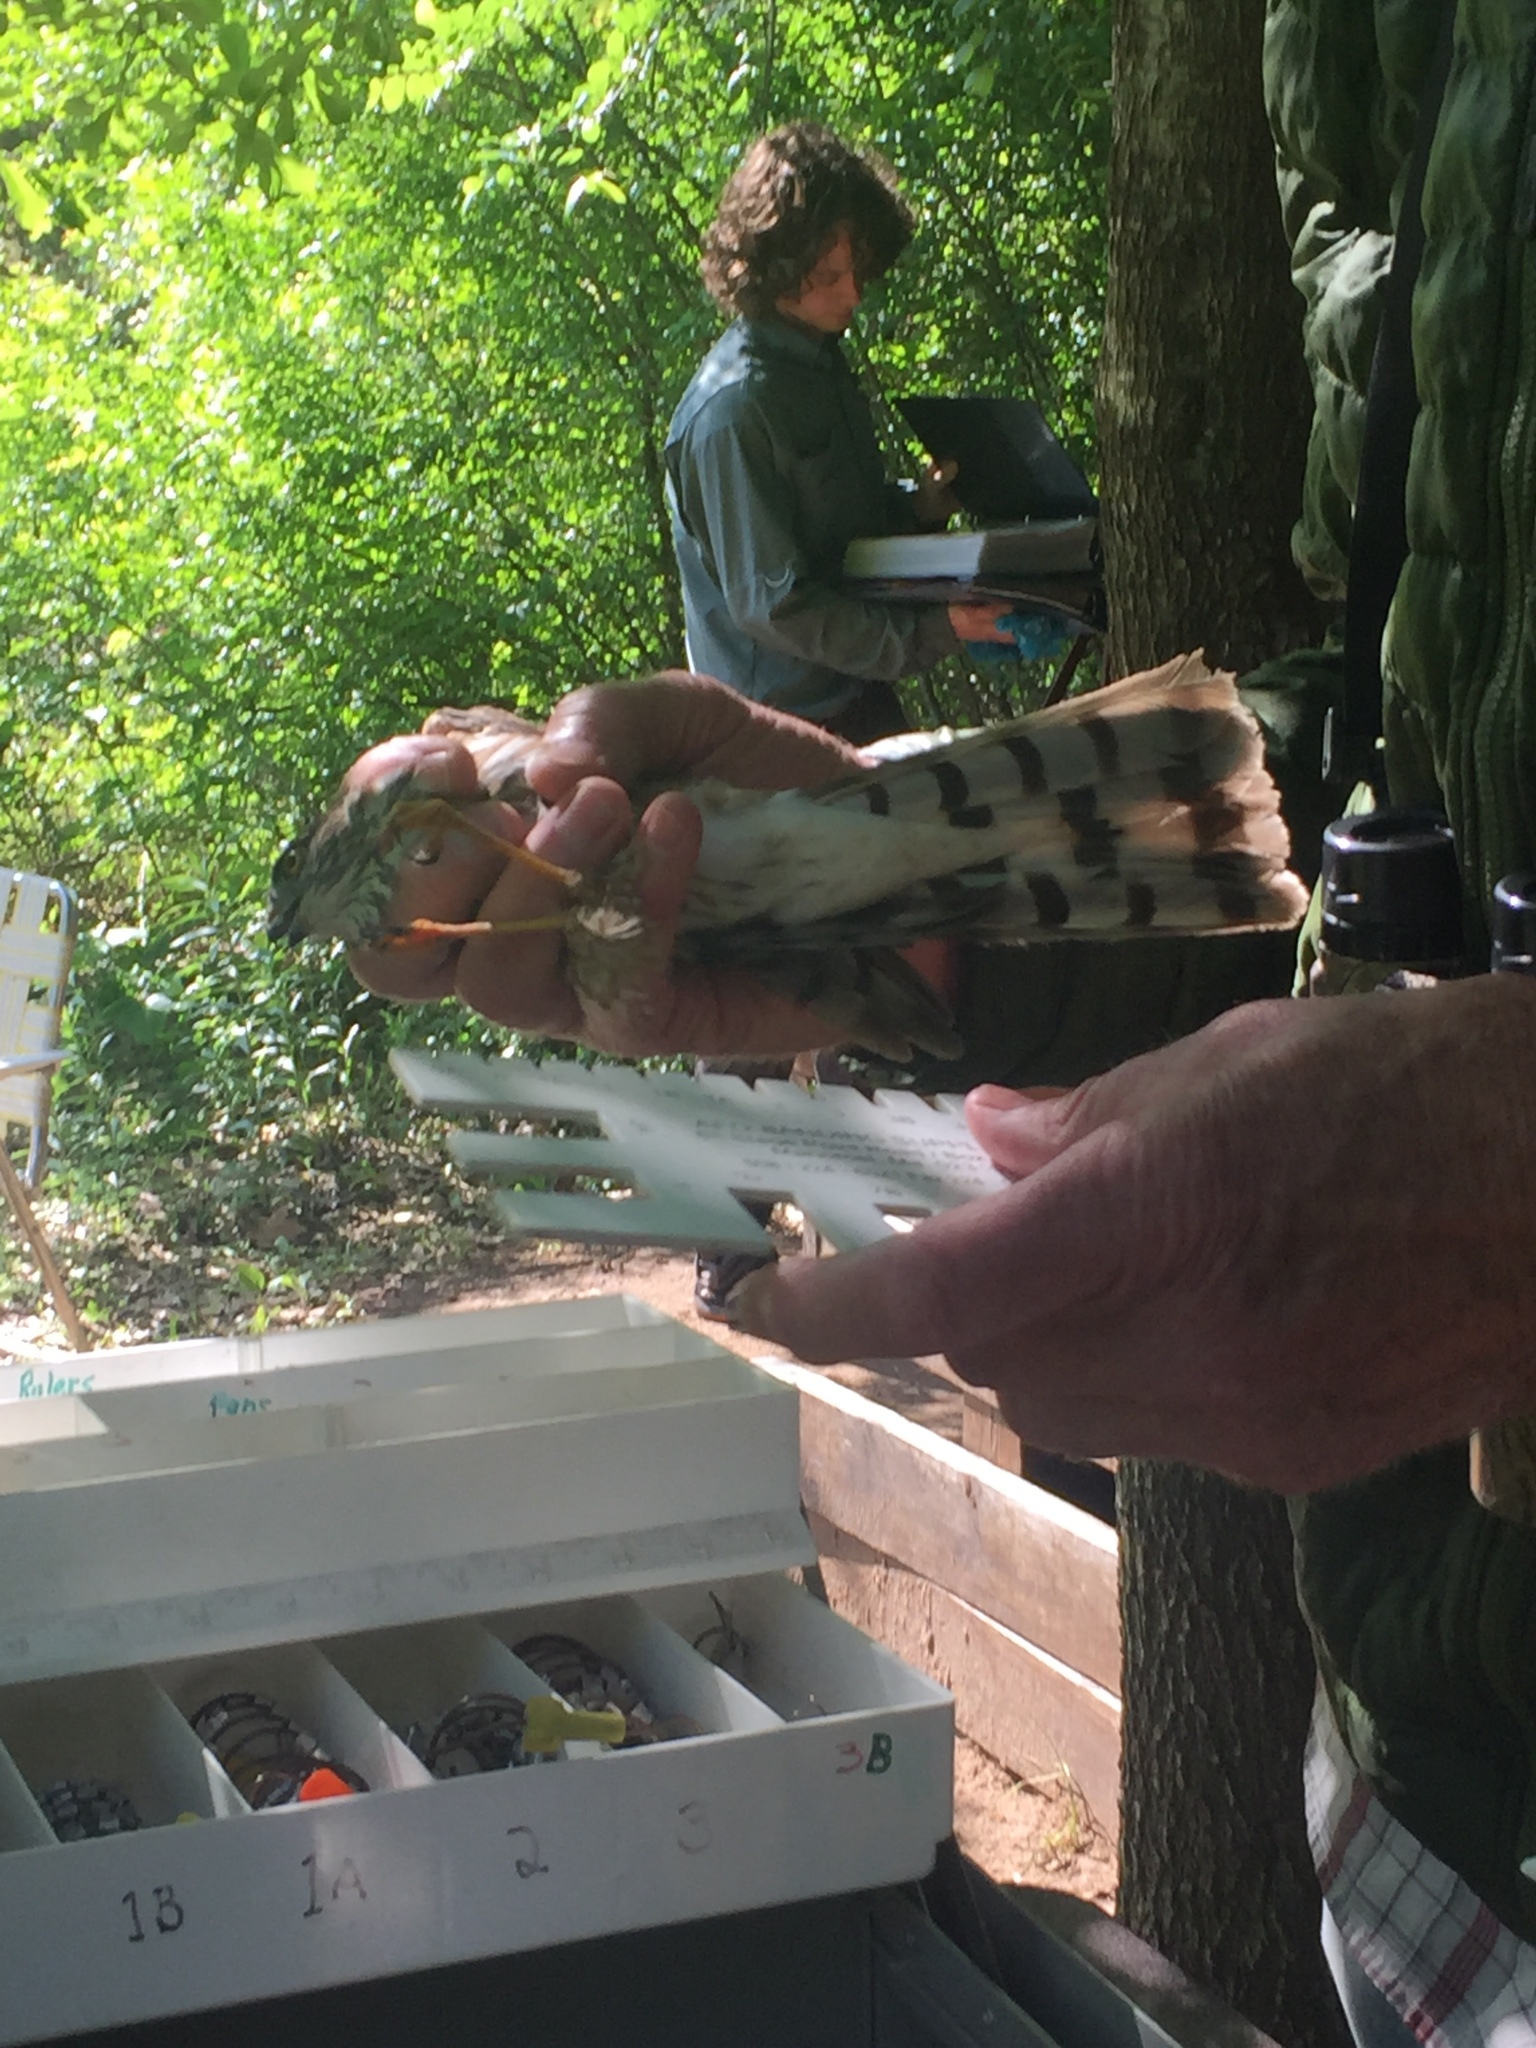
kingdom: Animalia
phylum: Chordata
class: Aves
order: Accipitriformes
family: Accipitridae
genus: Accipiter
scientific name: Accipiter striatus
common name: Sharp-shinned hawk
